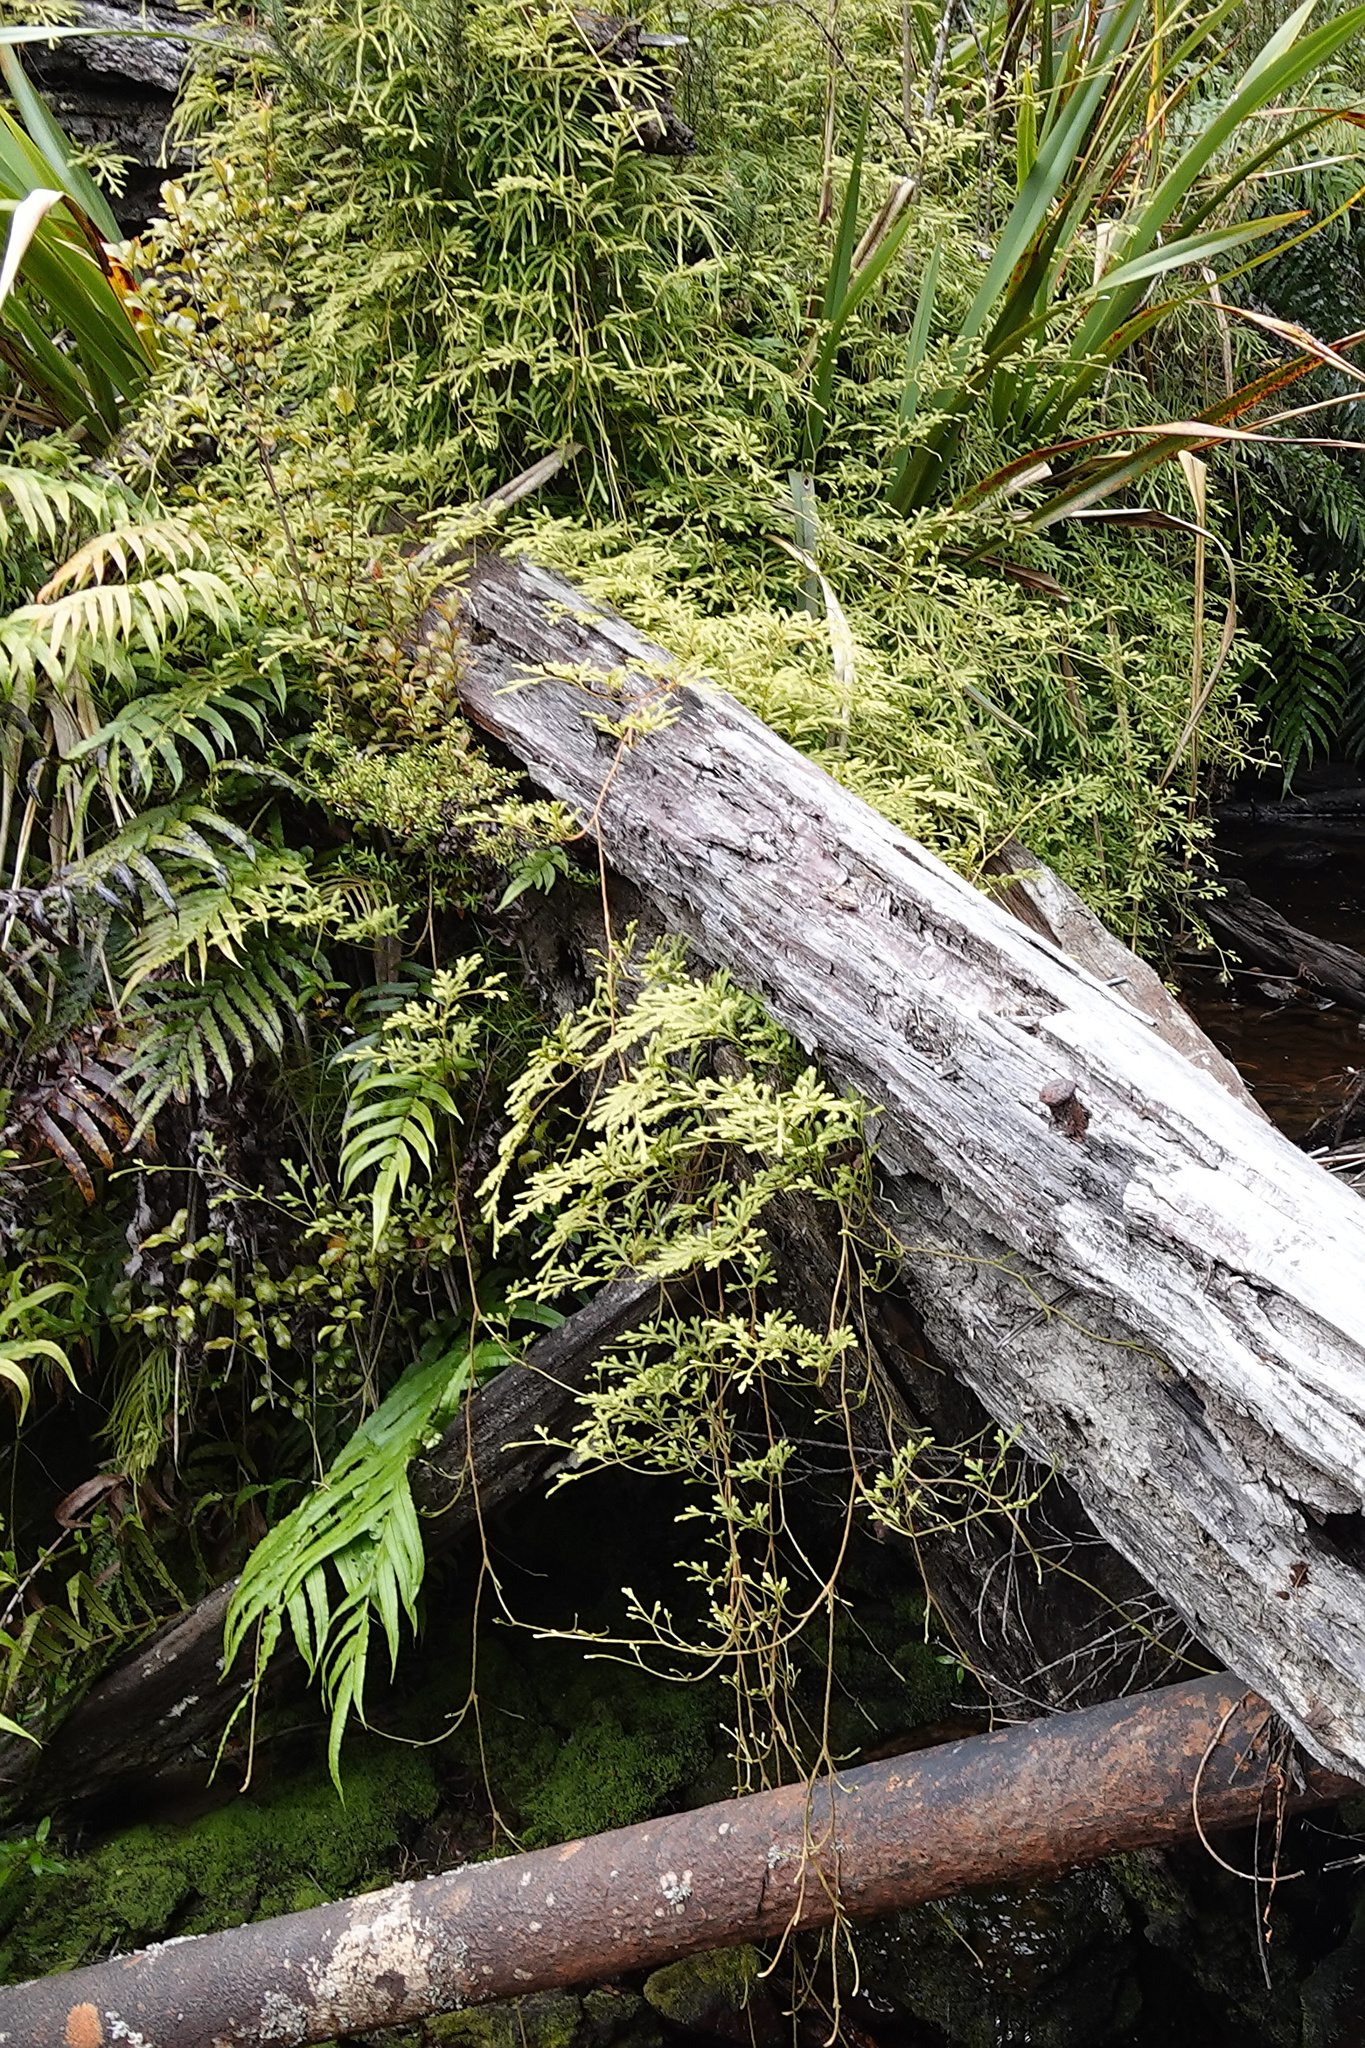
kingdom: Plantae
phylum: Tracheophyta
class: Lycopodiopsida
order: Lycopodiales
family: Lycopodiaceae
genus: Lycopodium
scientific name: Lycopodium volubile
